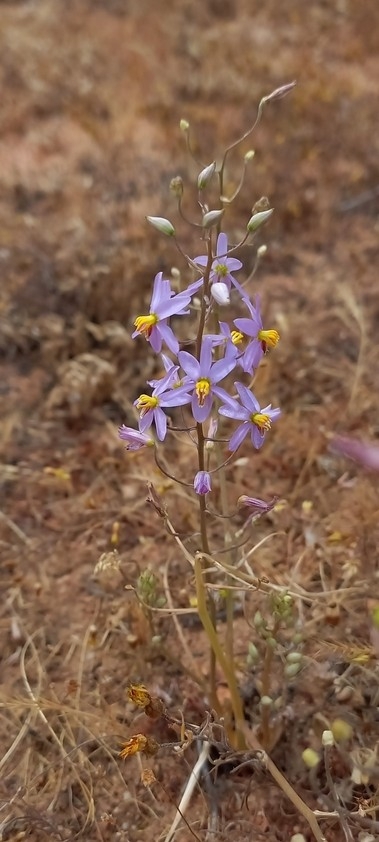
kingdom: Plantae
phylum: Tracheophyta
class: Liliopsida
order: Asparagales
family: Tecophilaeaceae
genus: Cyanella
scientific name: Cyanella hyacinthoides
